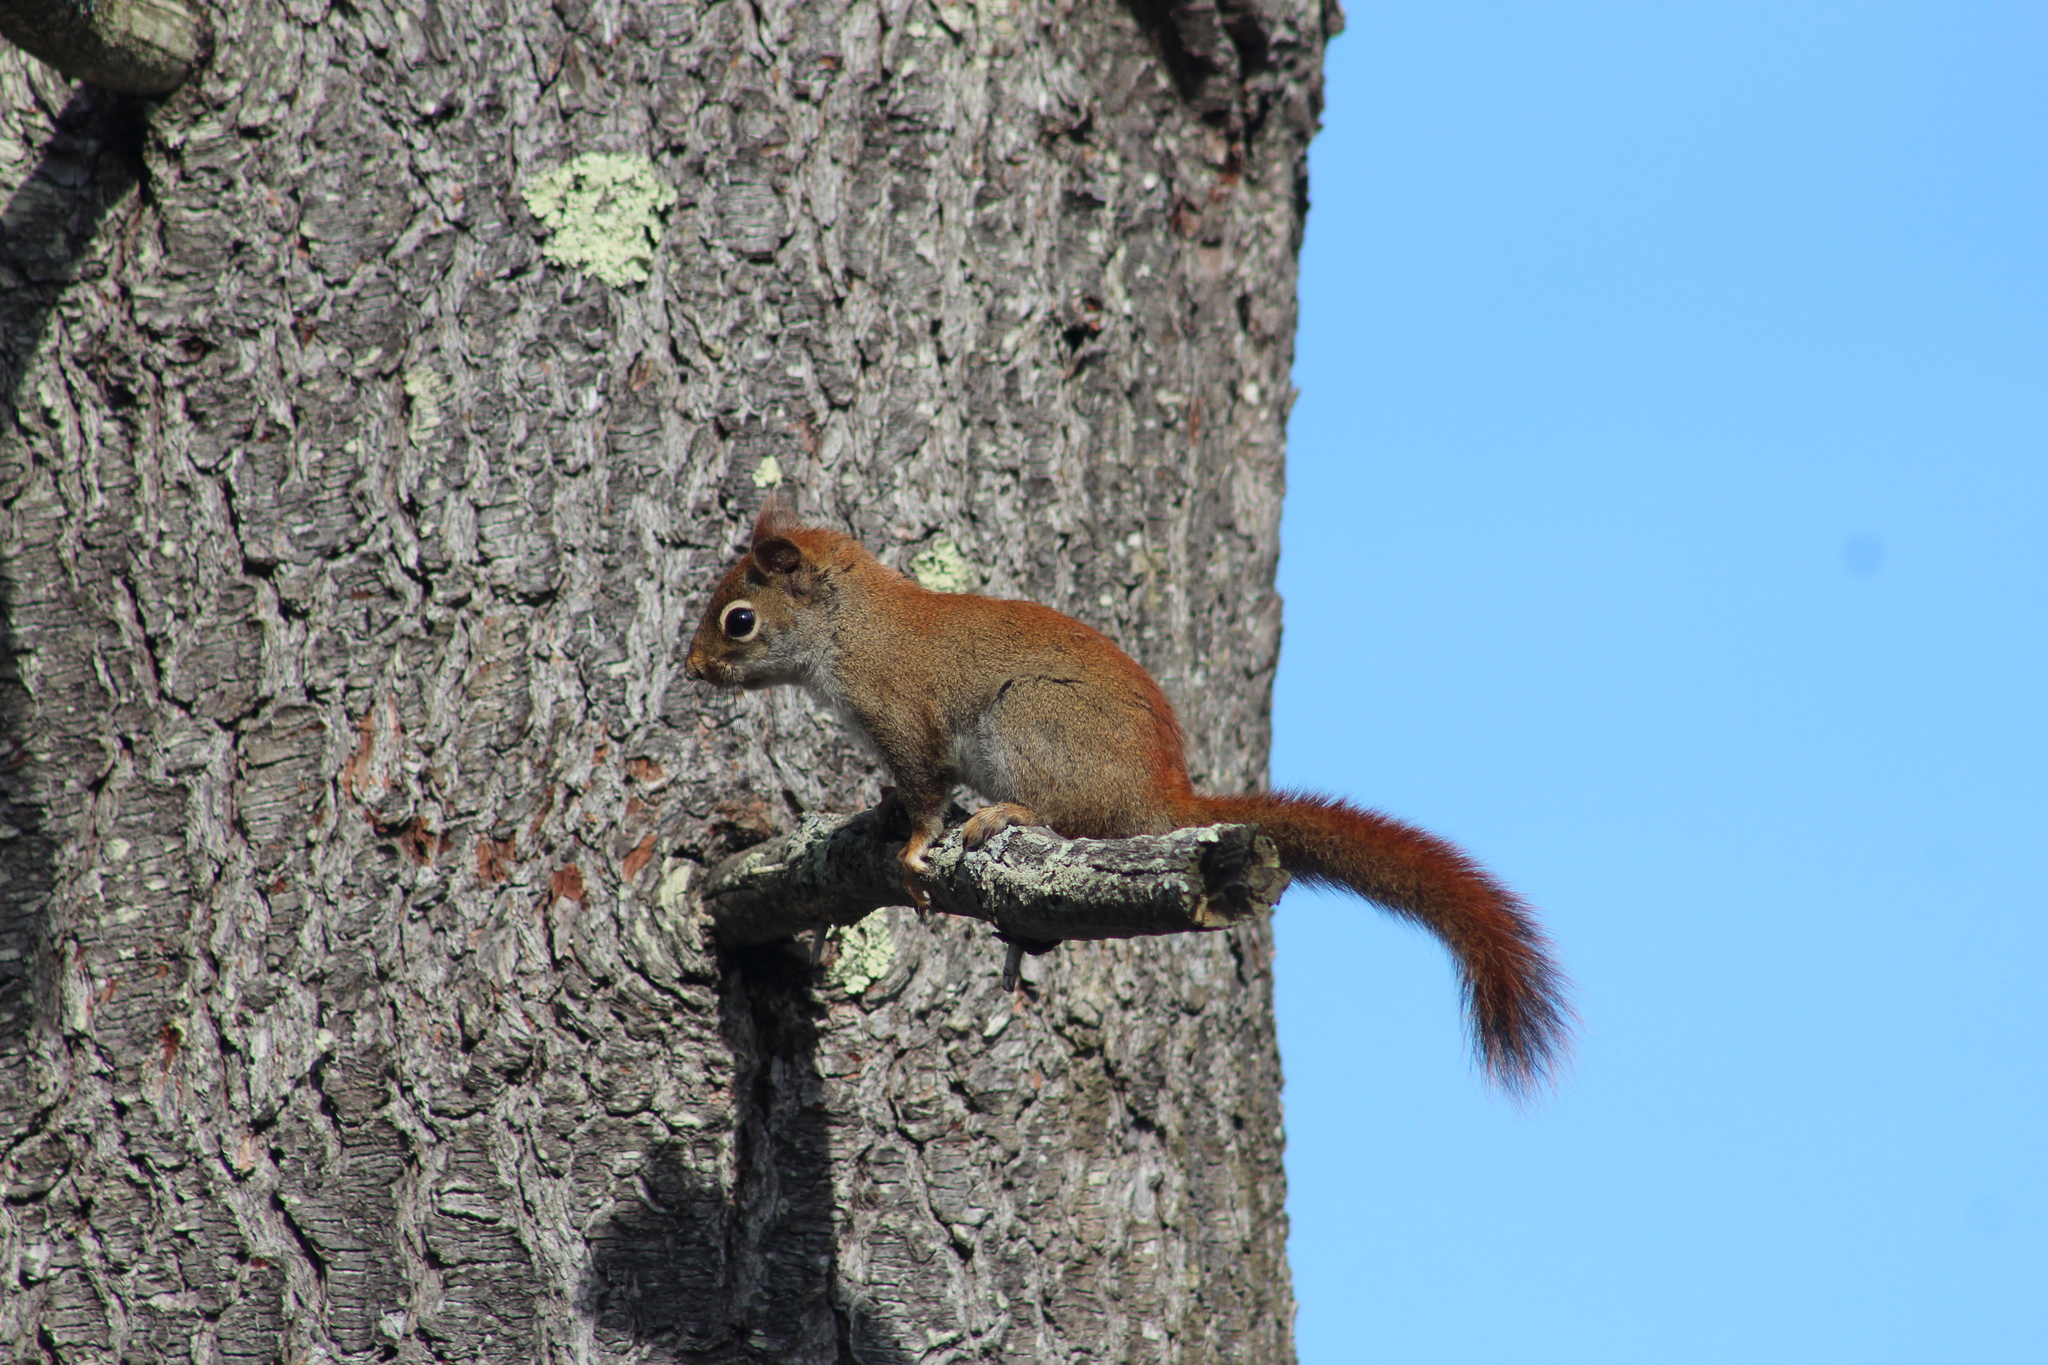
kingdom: Animalia
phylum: Chordata
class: Mammalia
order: Rodentia
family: Sciuridae
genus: Tamiasciurus
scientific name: Tamiasciurus hudsonicus
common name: Red squirrel
